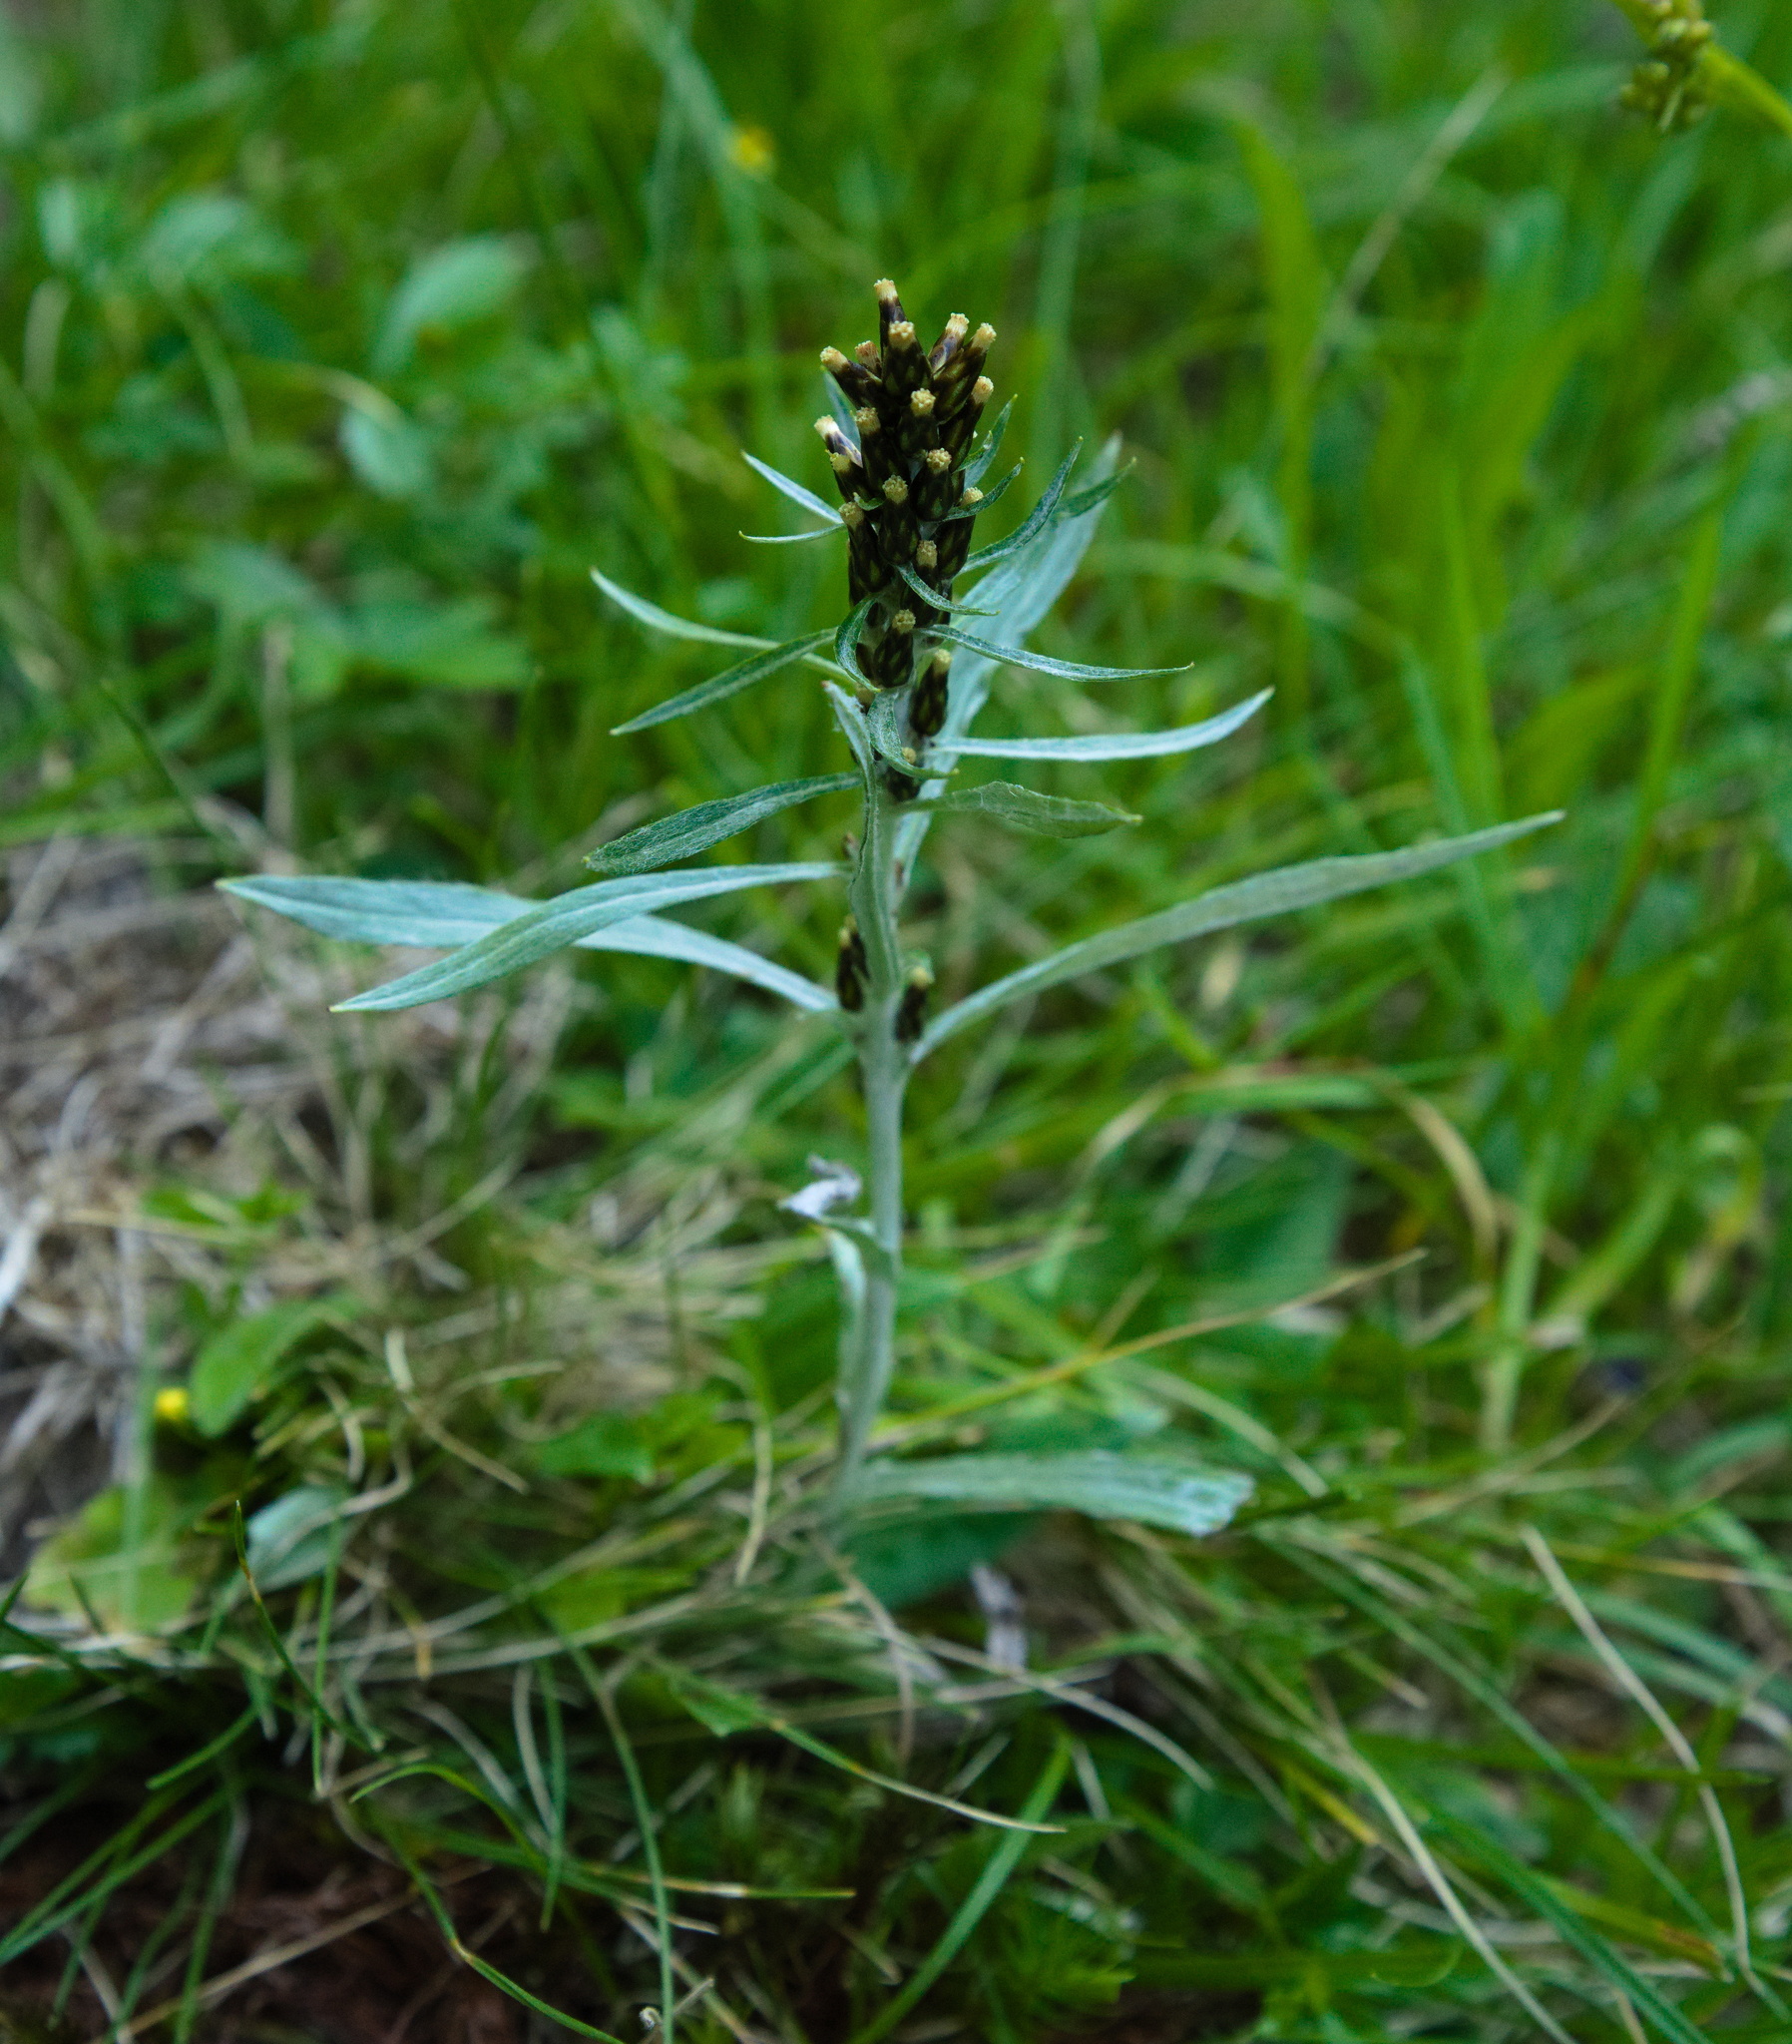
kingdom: Plantae
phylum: Tracheophyta
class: Magnoliopsida
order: Asterales
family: Asteraceae
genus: Omalotheca
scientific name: Omalotheca norvegica
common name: Norwegian arctic-cudweed
